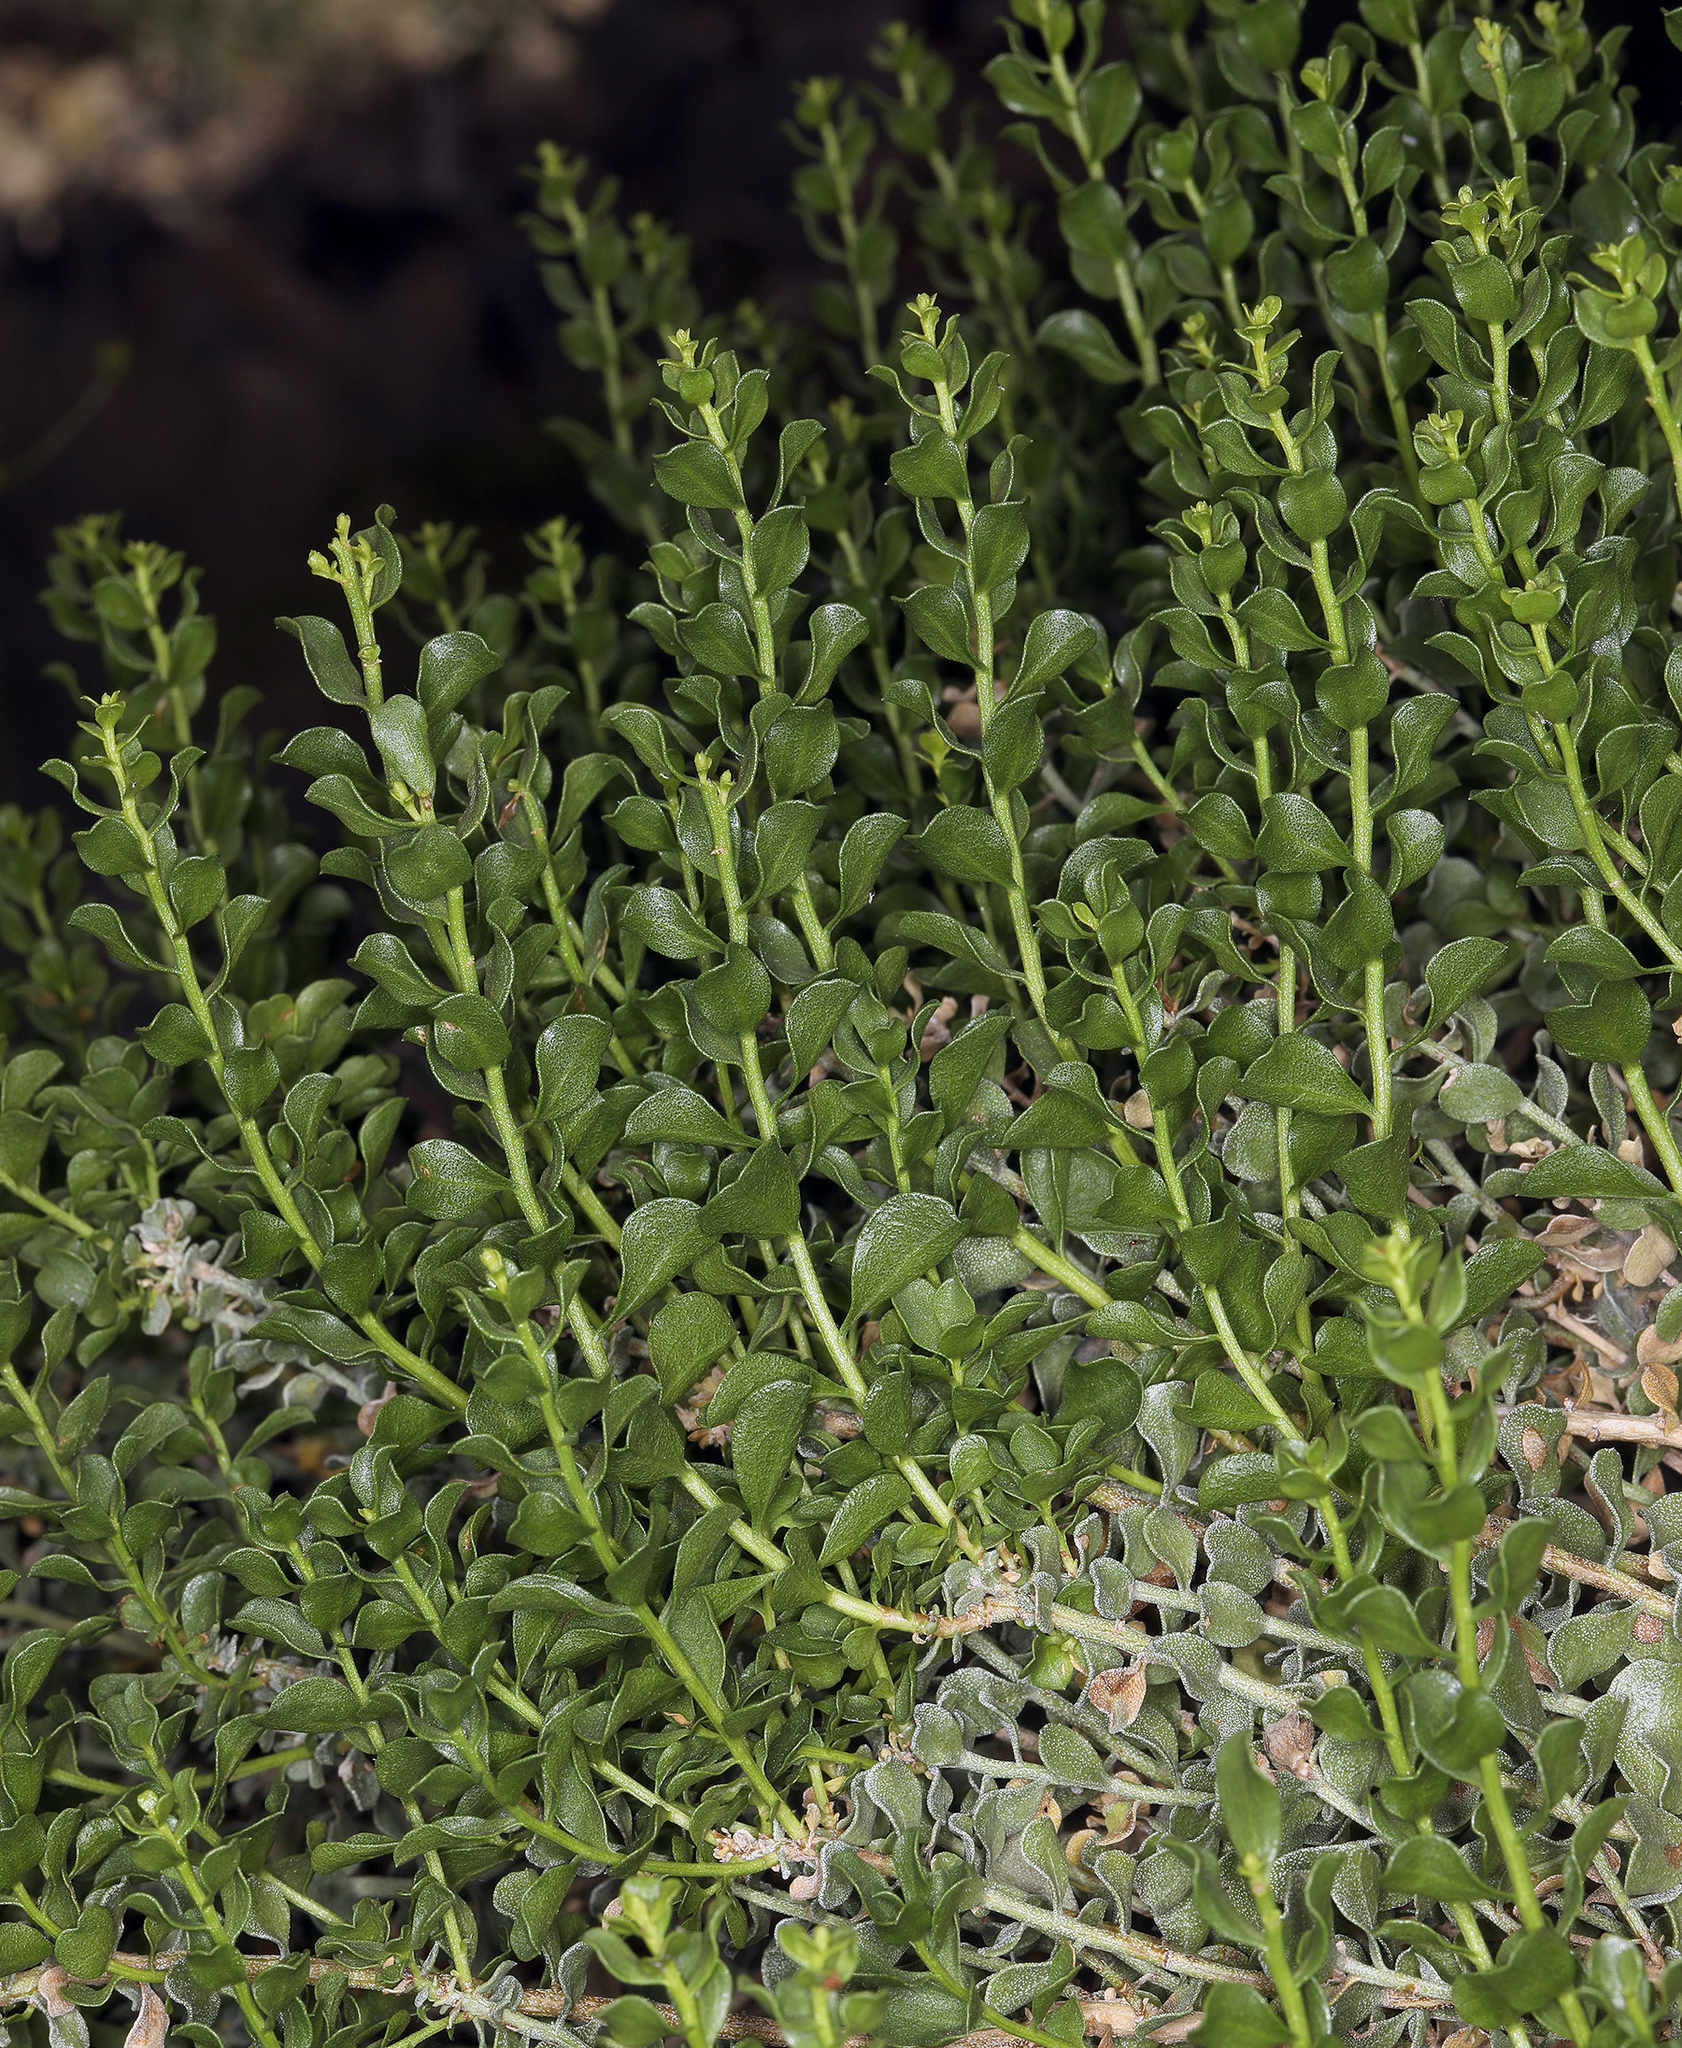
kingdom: Plantae
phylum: Tracheophyta
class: Magnoliopsida
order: Asterales
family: Asteraceae
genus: Ericameria
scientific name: Ericameria cuneata
